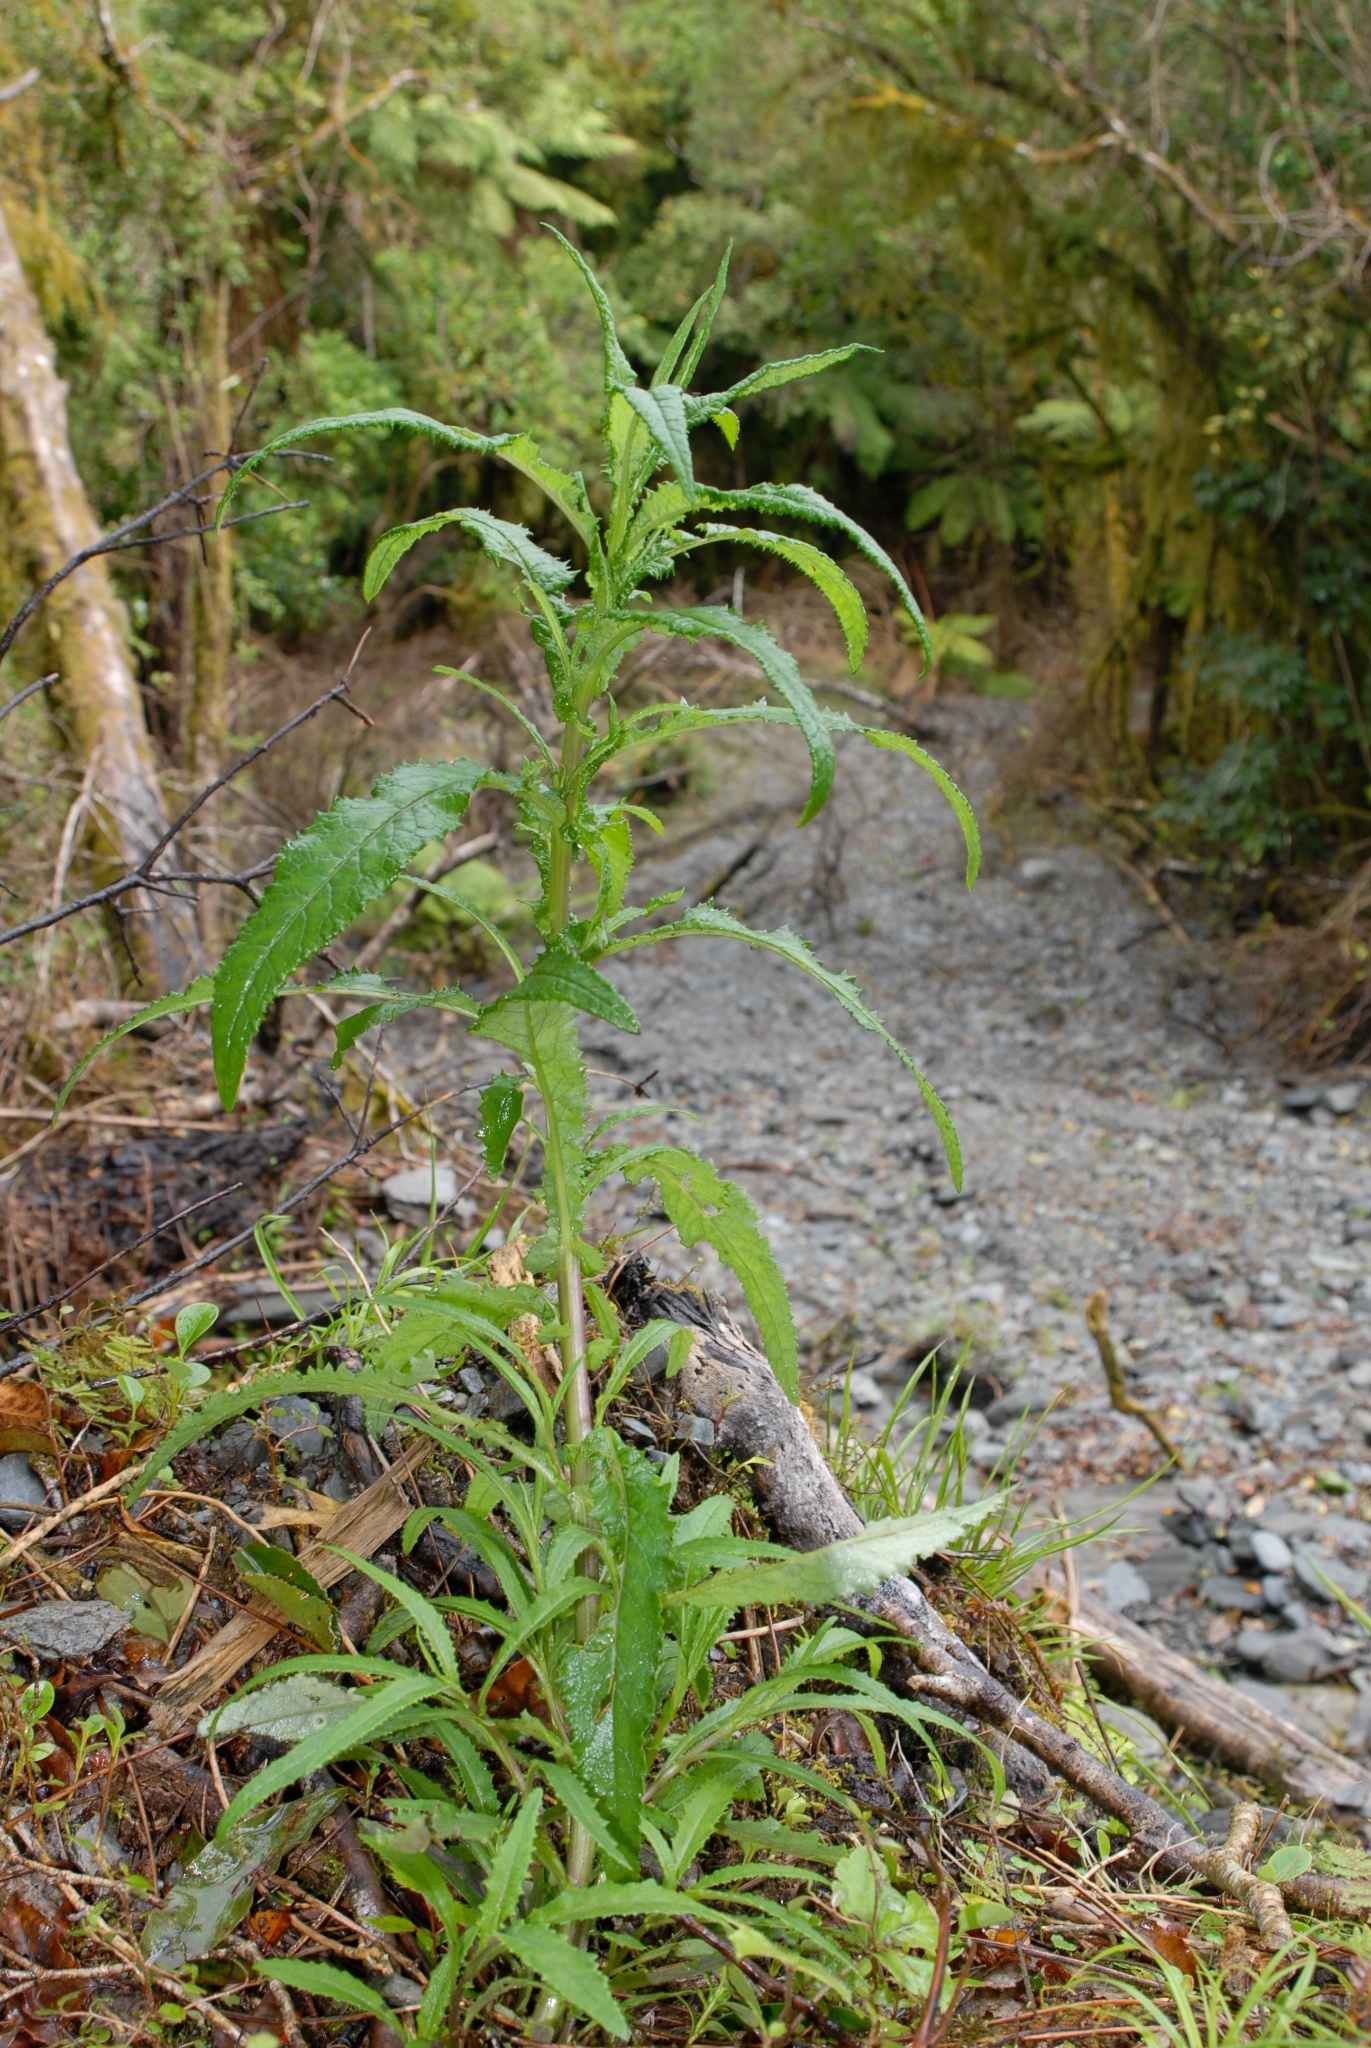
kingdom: Plantae
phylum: Tracheophyta
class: Magnoliopsida
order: Asterales
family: Asteraceae
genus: Senecio
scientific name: Senecio minimus
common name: Toothed fireweed
